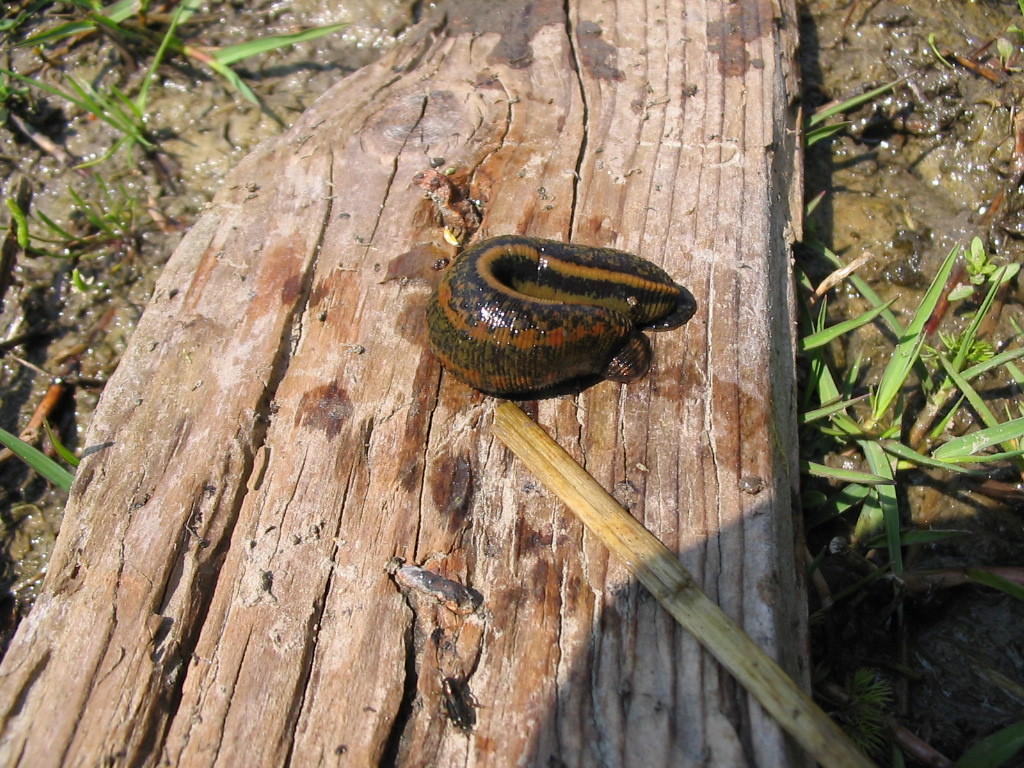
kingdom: Animalia
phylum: Annelida
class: Clitellata
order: Arhynchobdellida
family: Hirudinidae
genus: Hirudo
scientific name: Hirudo verbana
